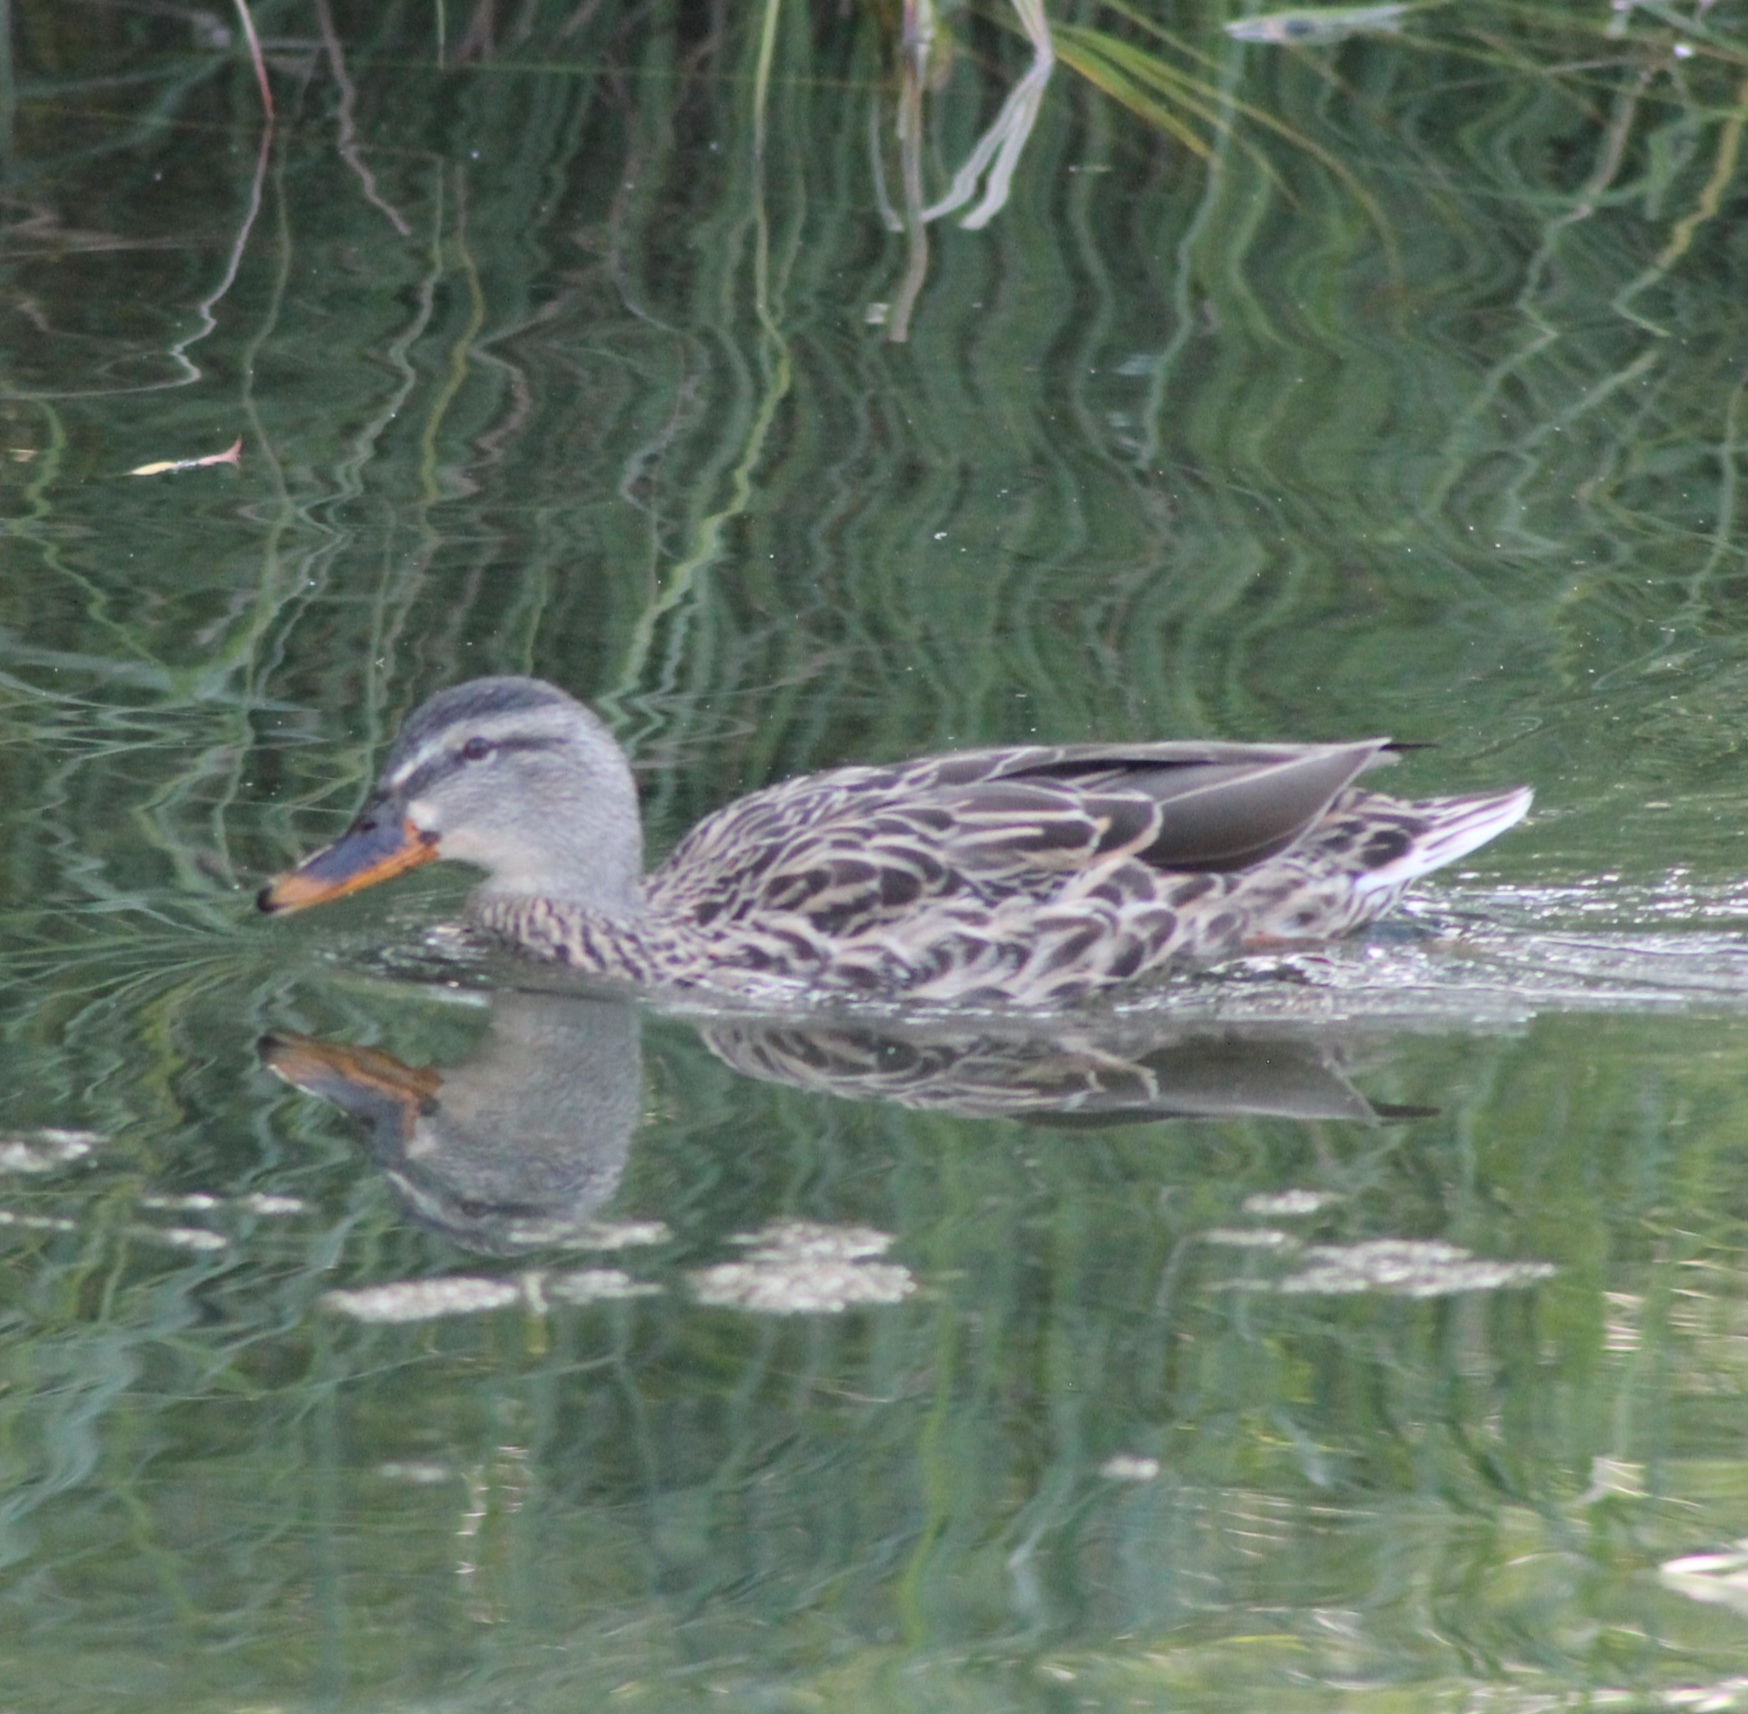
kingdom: Animalia
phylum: Chordata
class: Aves
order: Anseriformes
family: Anatidae
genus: Anas
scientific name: Anas platyrhynchos
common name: Mallard
